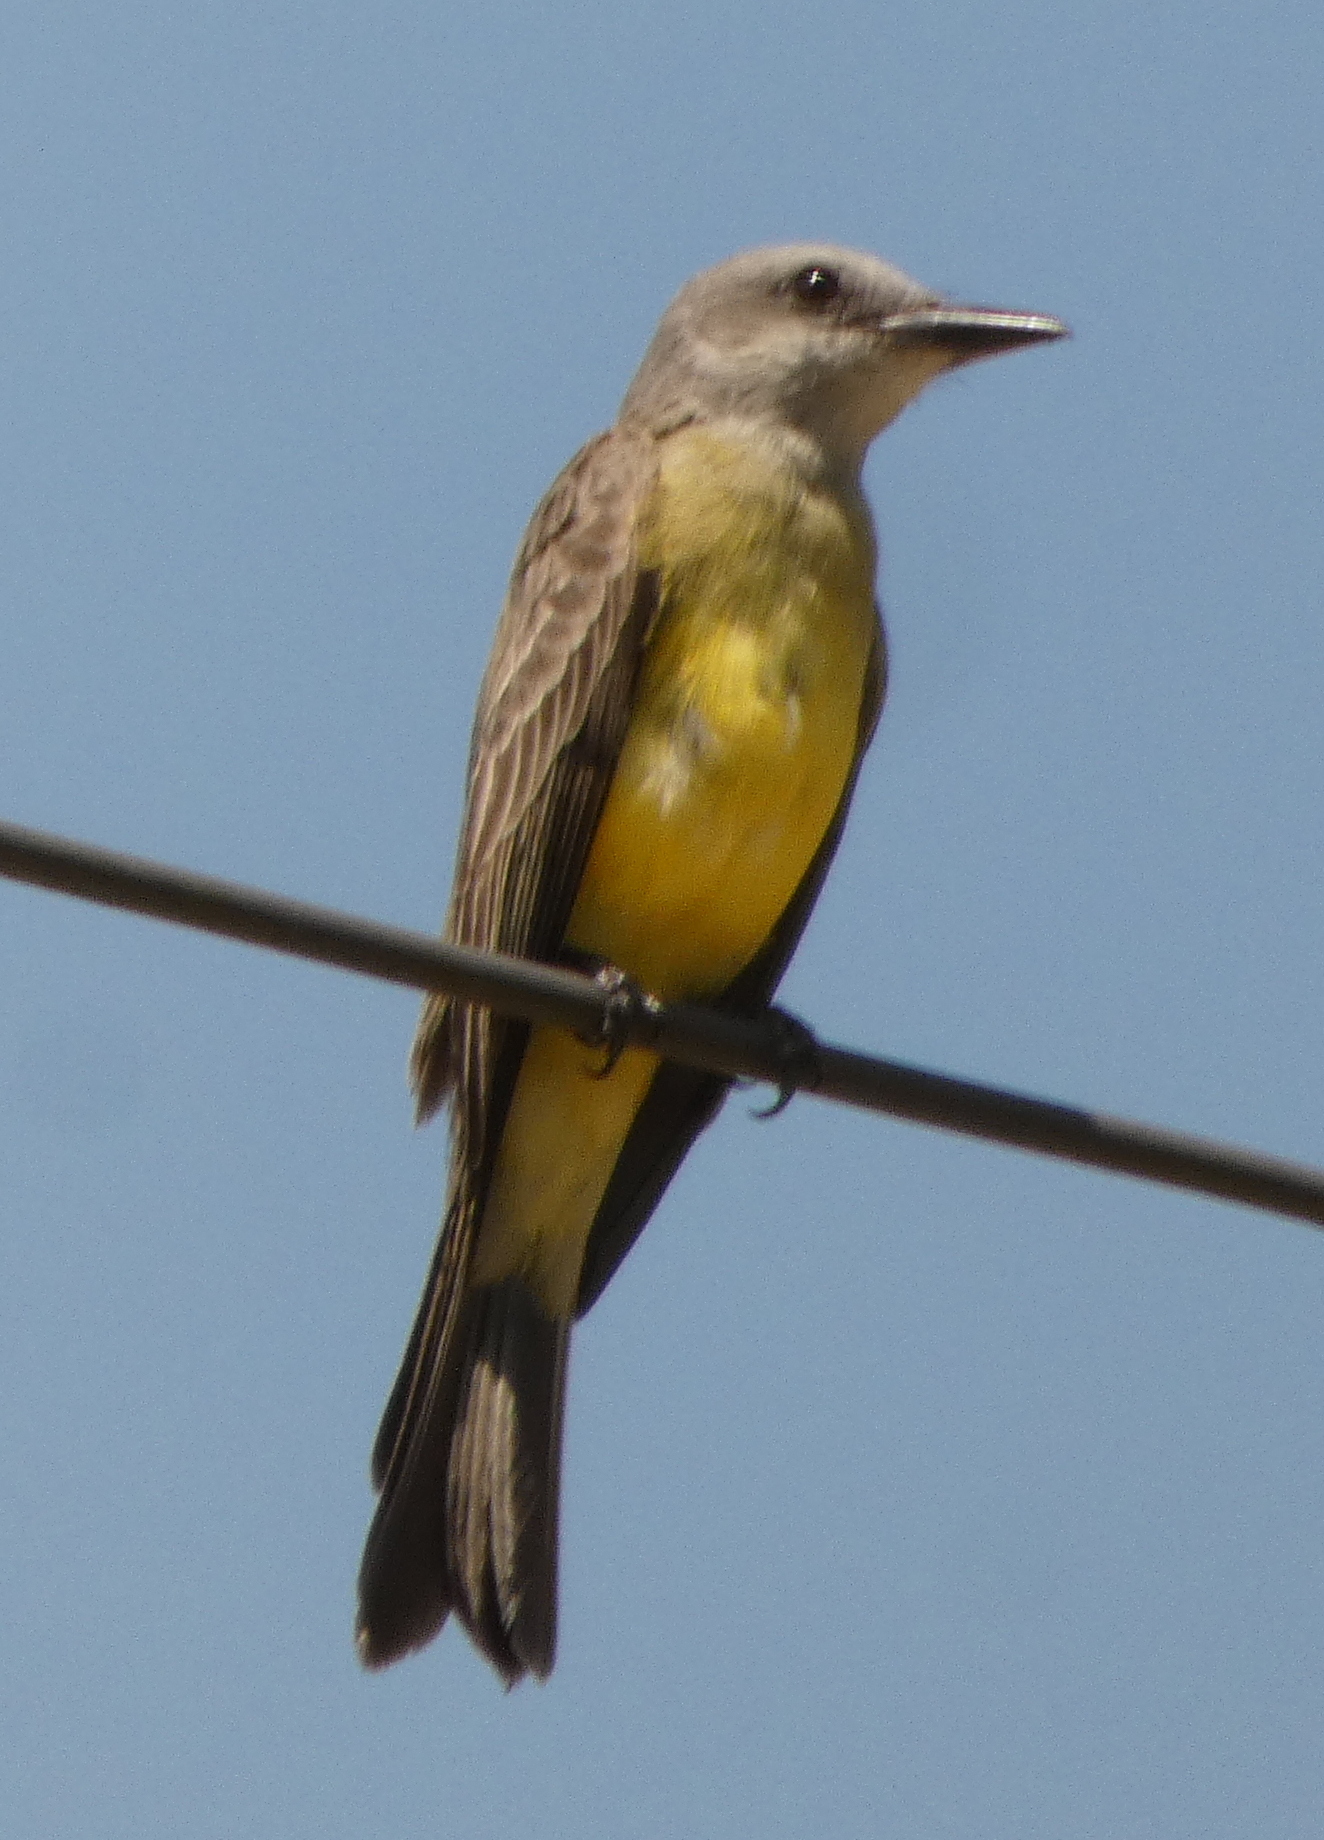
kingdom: Animalia
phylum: Chordata
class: Aves
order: Passeriformes
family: Tyrannidae
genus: Tyrannus
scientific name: Tyrannus melancholicus
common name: Tropical kingbird
